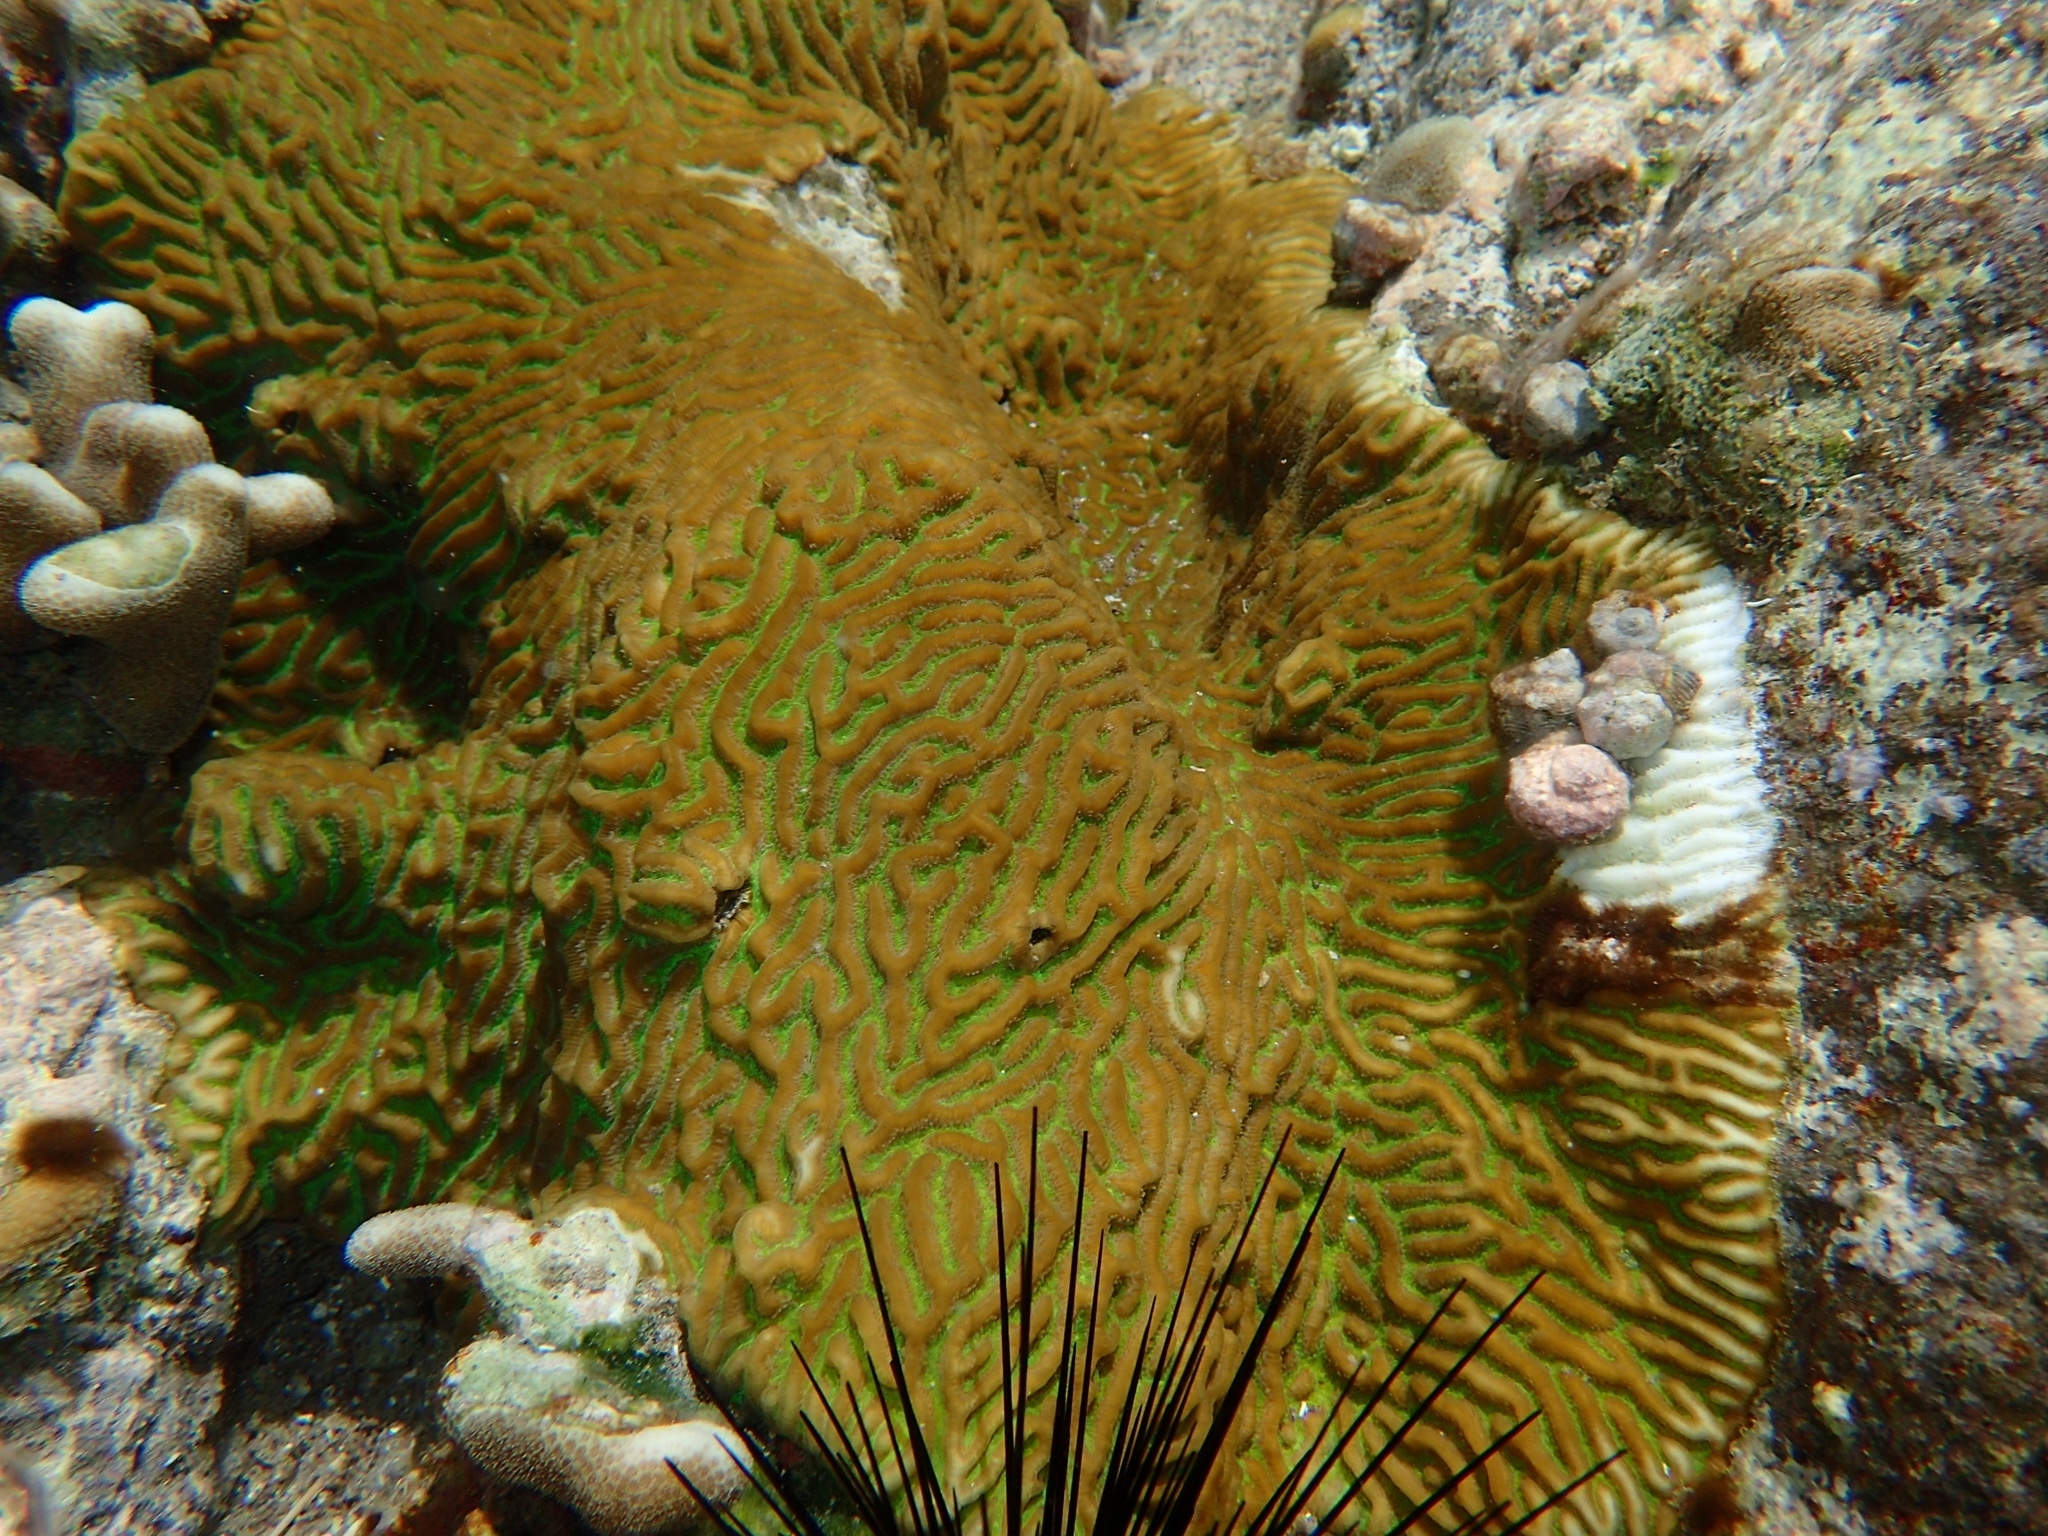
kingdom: Animalia
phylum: Cnidaria
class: Anthozoa
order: Scleractinia
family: Faviidae
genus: Pseudodiploria
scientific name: Pseudodiploria clivosa
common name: Knobby brain coral
